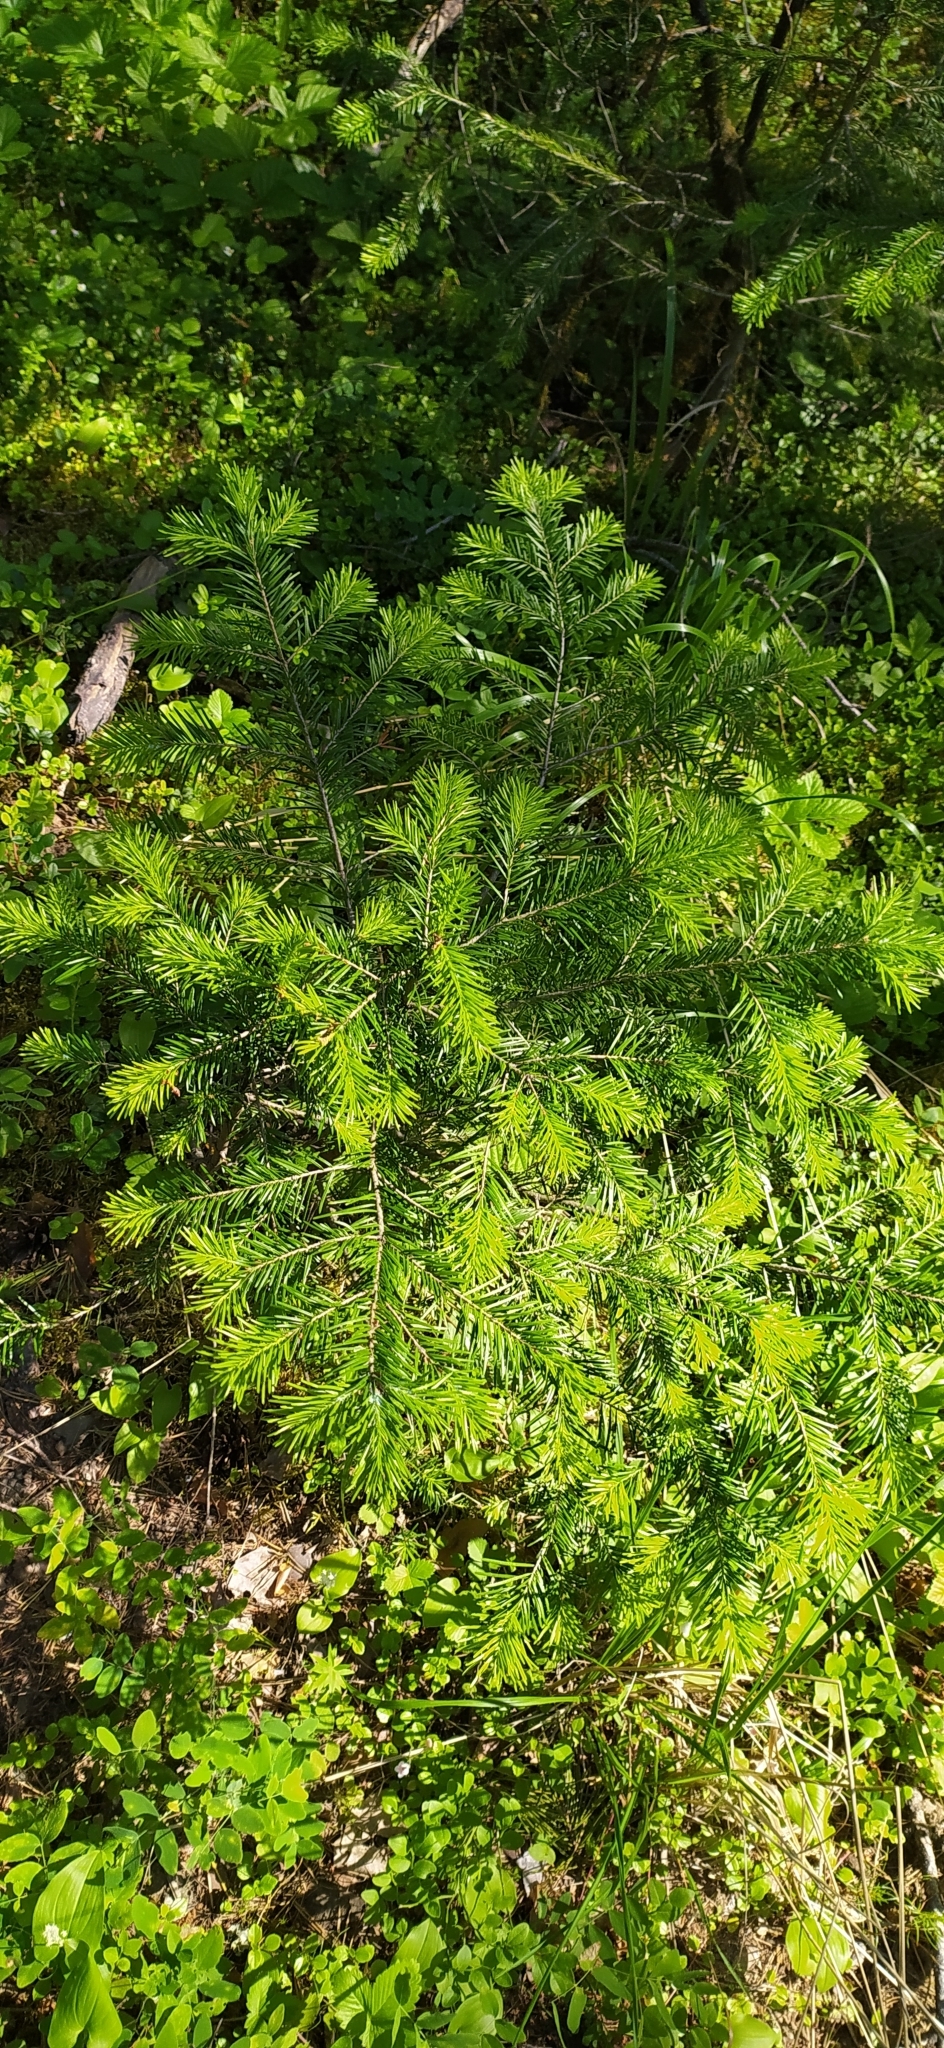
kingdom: Plantae
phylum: Tracheophyta
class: Pinopsida
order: Pinales
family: Pinaceae
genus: Abies
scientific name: Abies sibirica
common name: Siberian fir
